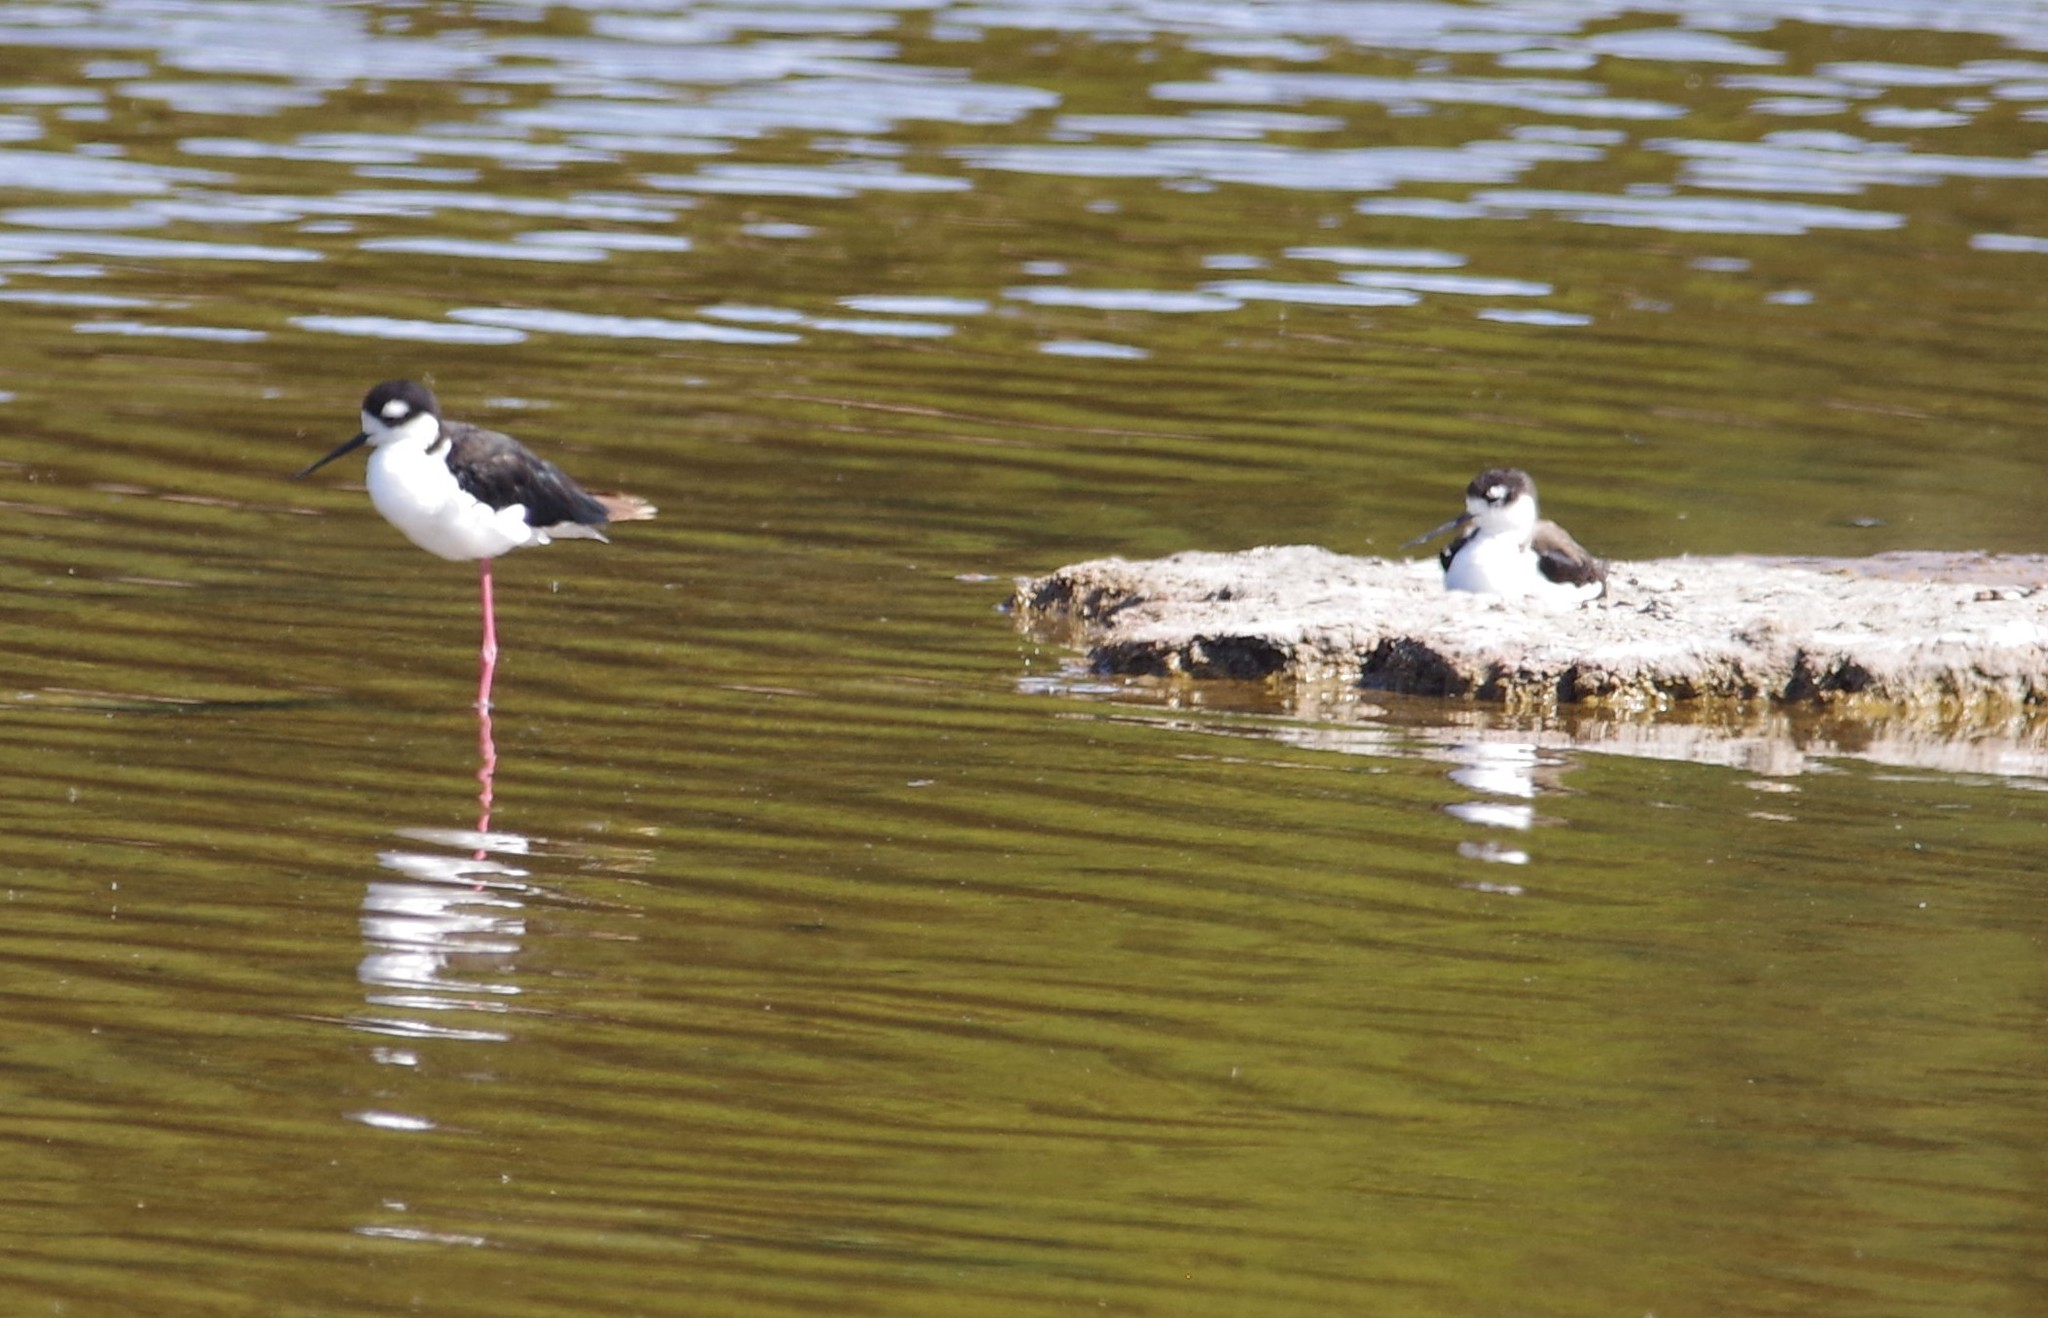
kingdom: Animalia
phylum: Chordata
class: Aves
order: Charadriiformes
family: Recurvirostridae
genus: Himantopus
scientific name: Himantopus mexicanus
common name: Black-necked stilt
